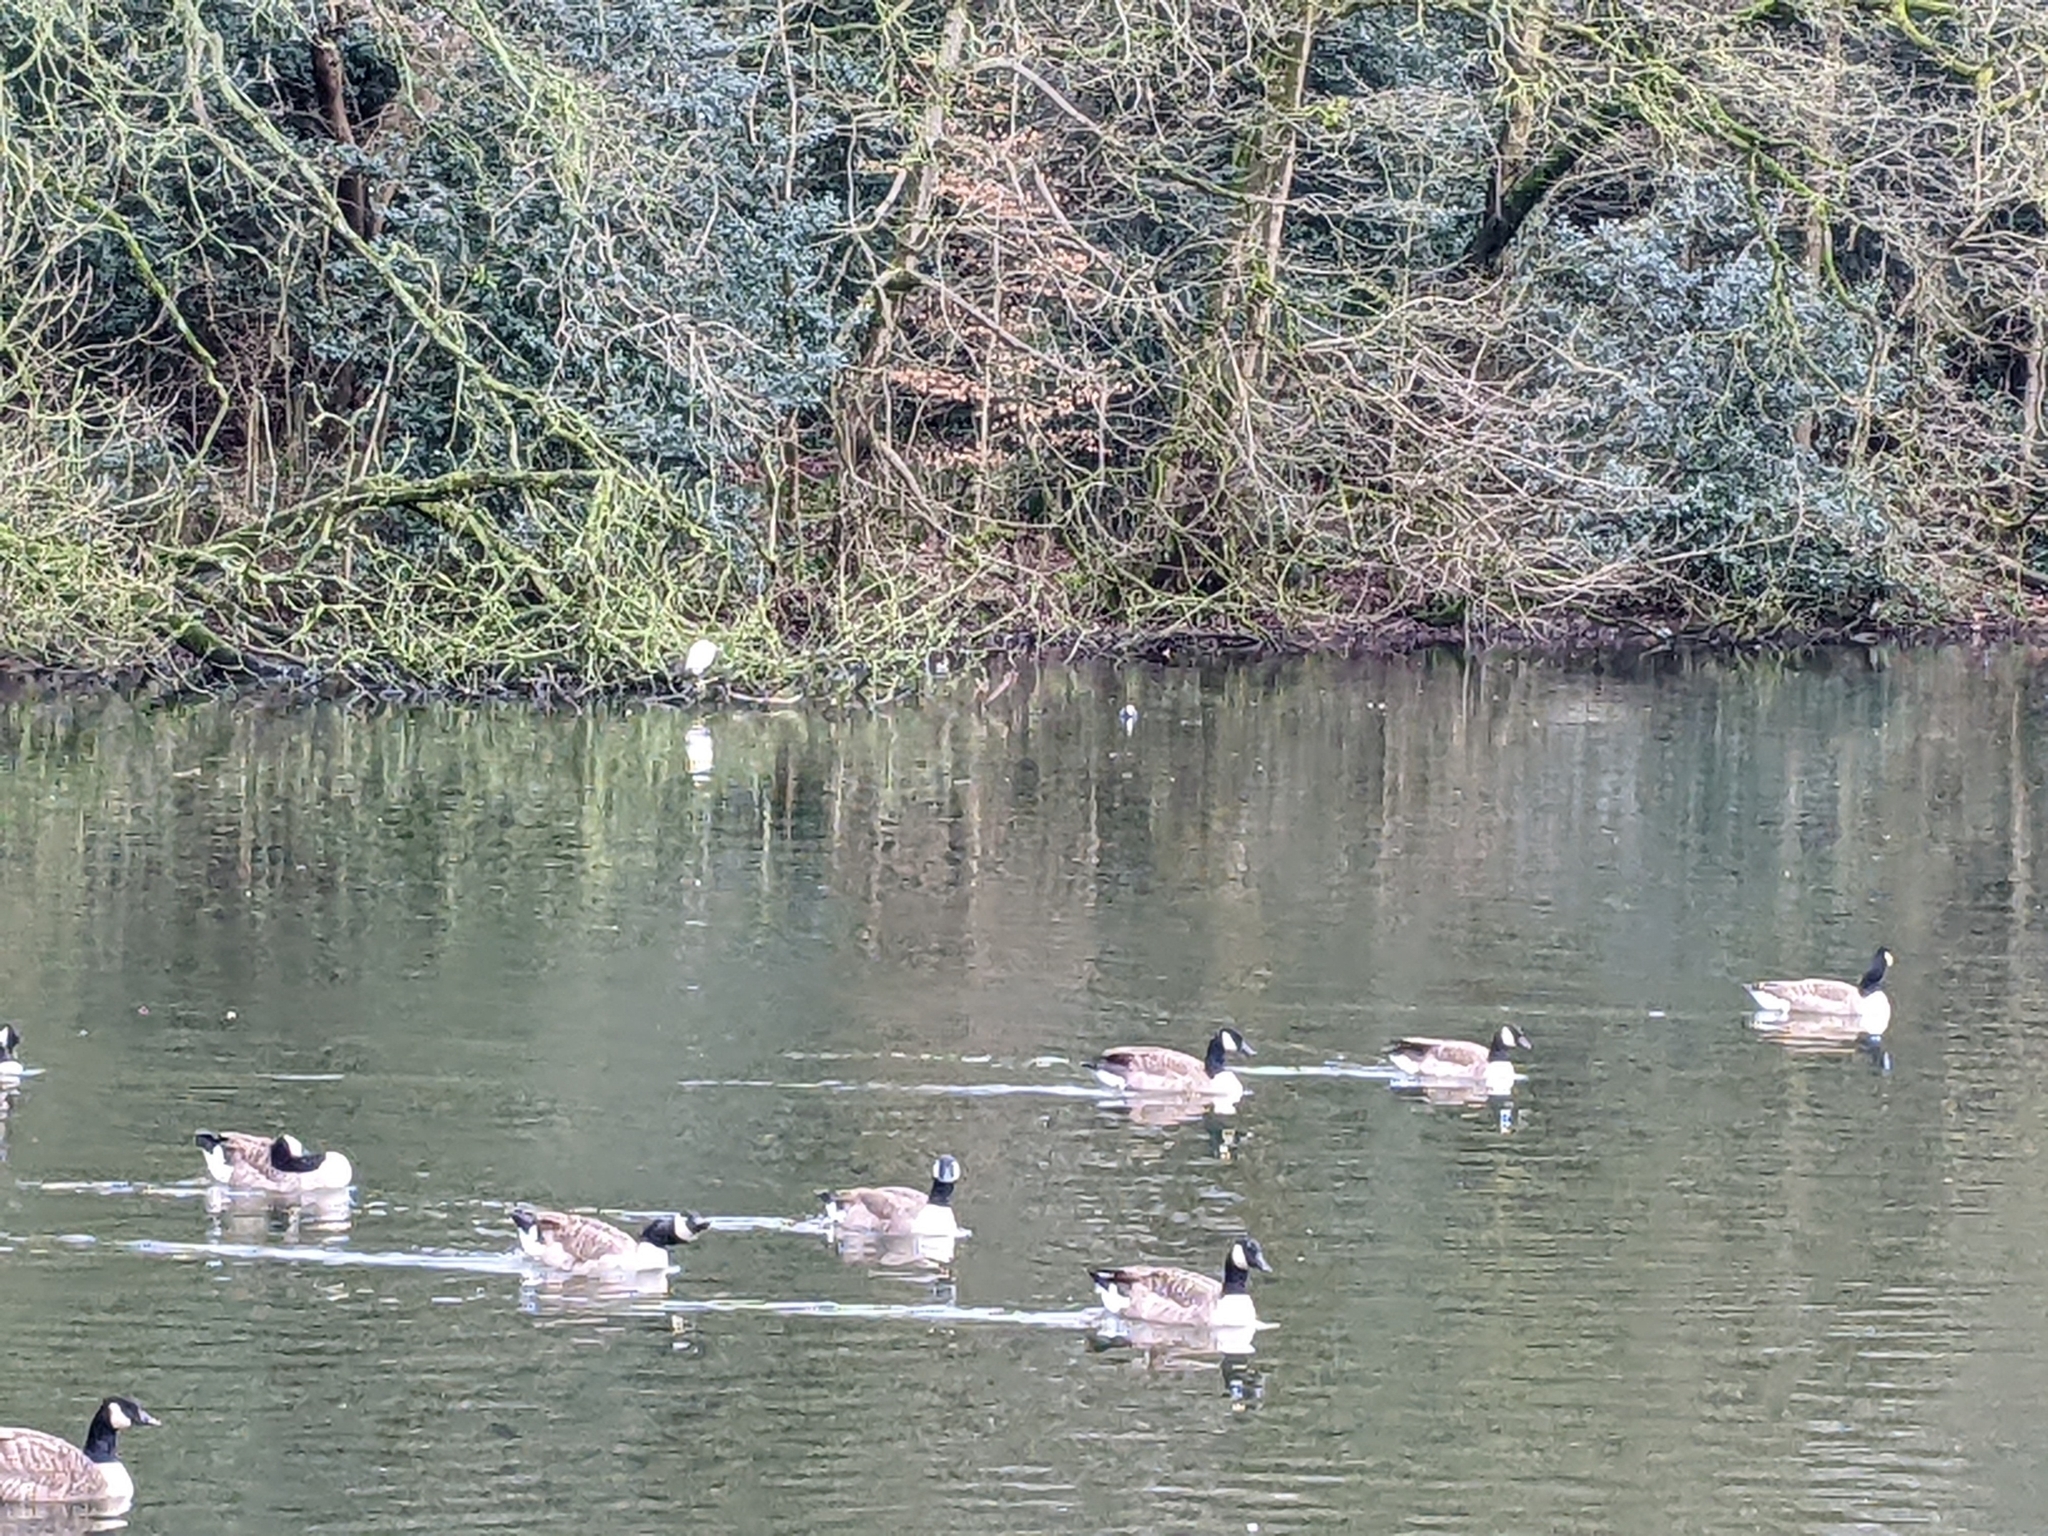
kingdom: Animalia
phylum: Chordata
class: Aves
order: Anseriformes
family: Anatidae
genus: Branta
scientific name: Branta canadensis
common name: Canada goose
